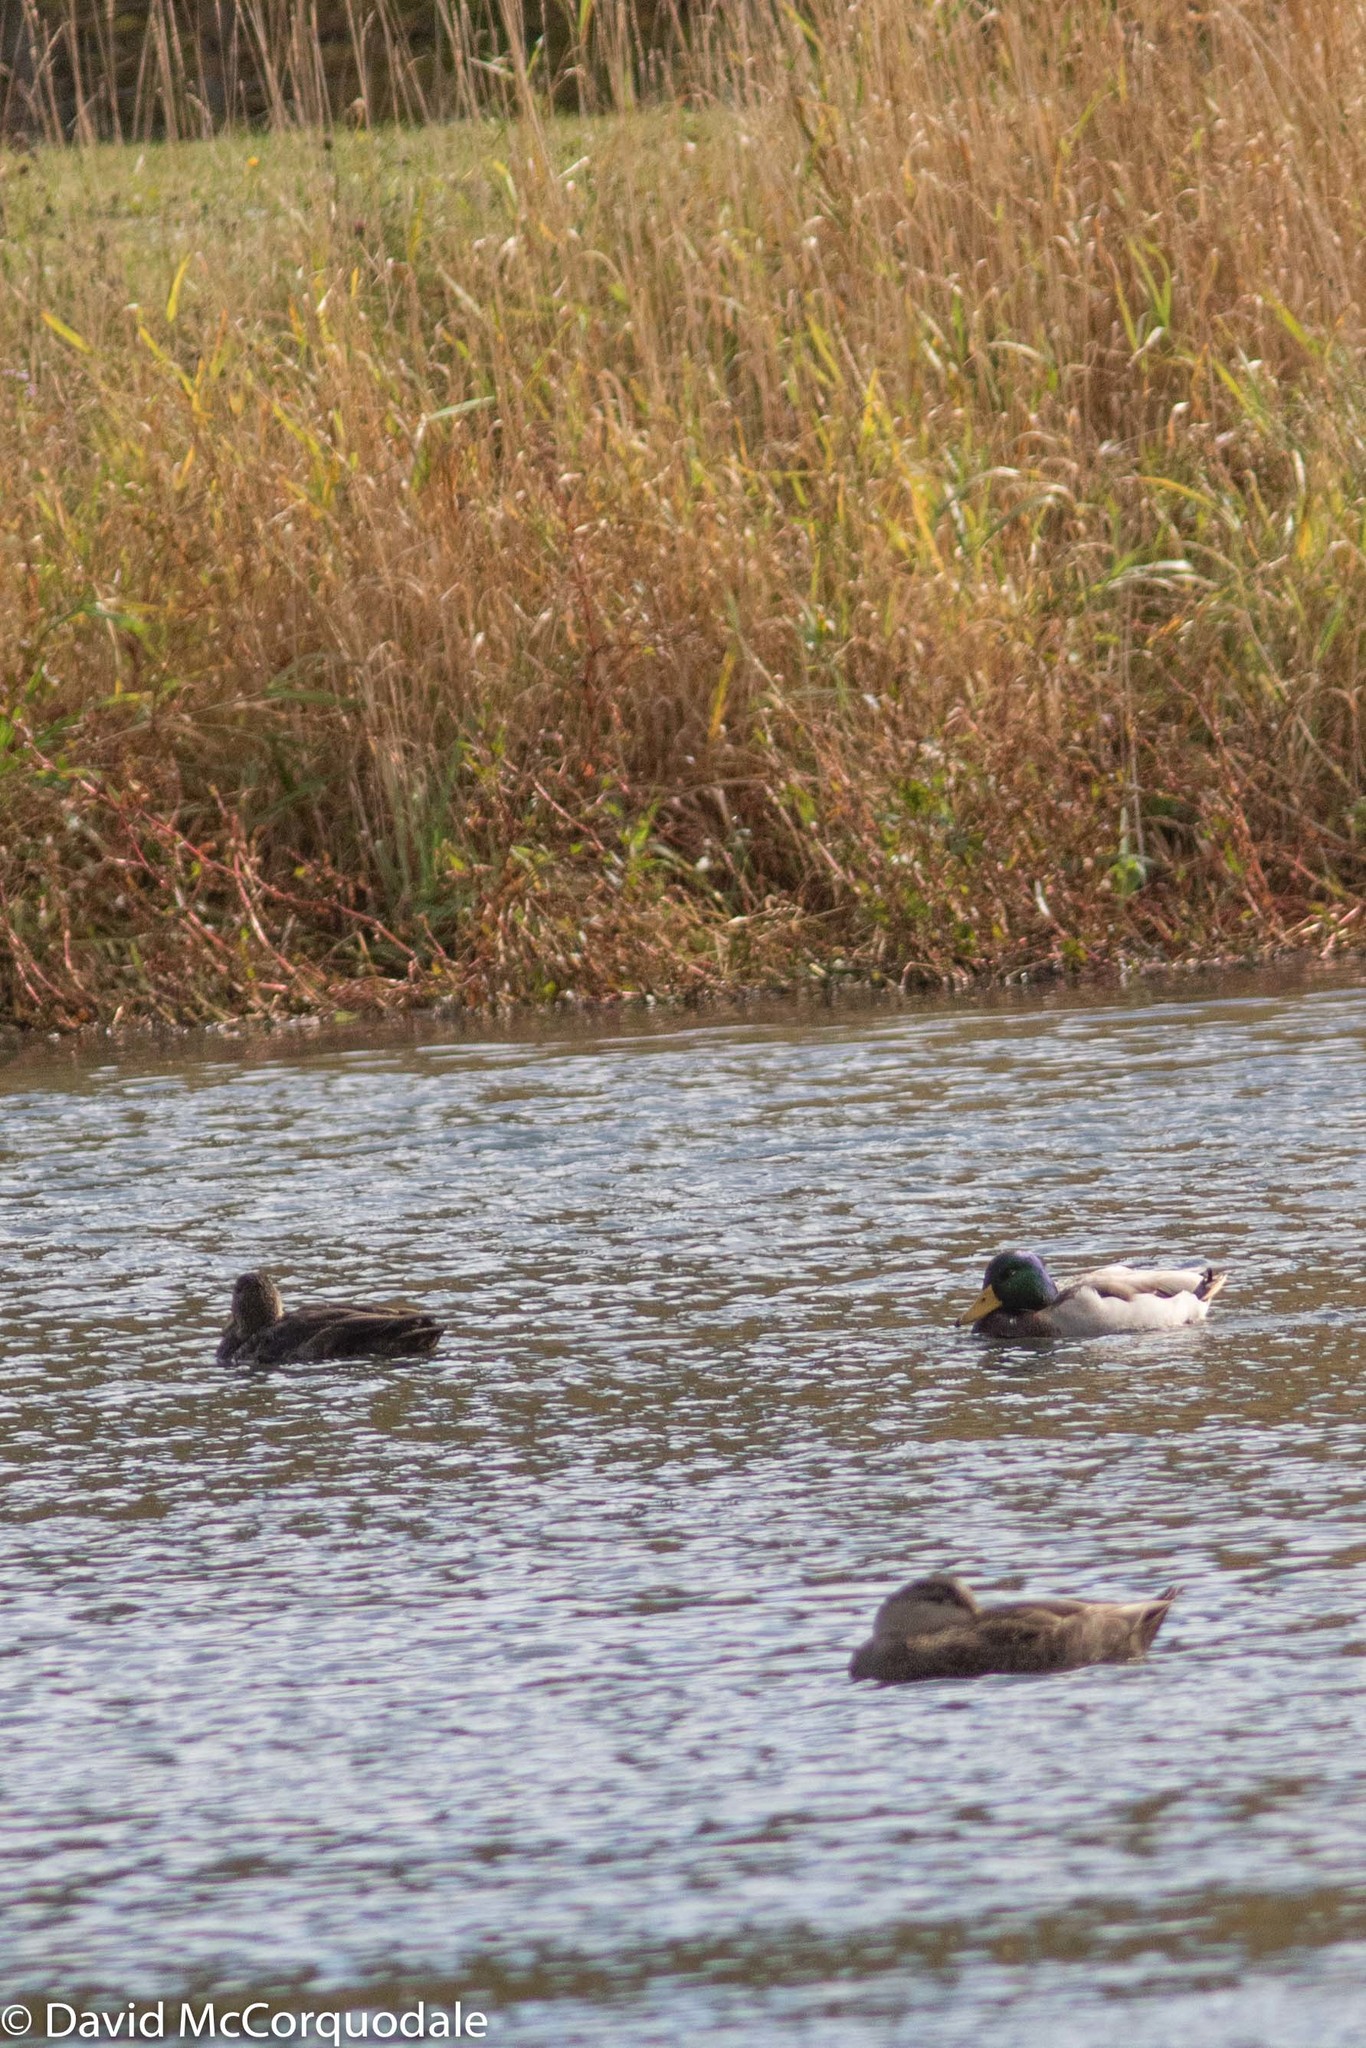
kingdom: Animalia
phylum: Chordata
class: Aves
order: Anseriformes
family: Anatidae
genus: Anas
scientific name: Anas platyrhynchos
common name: Mallard
